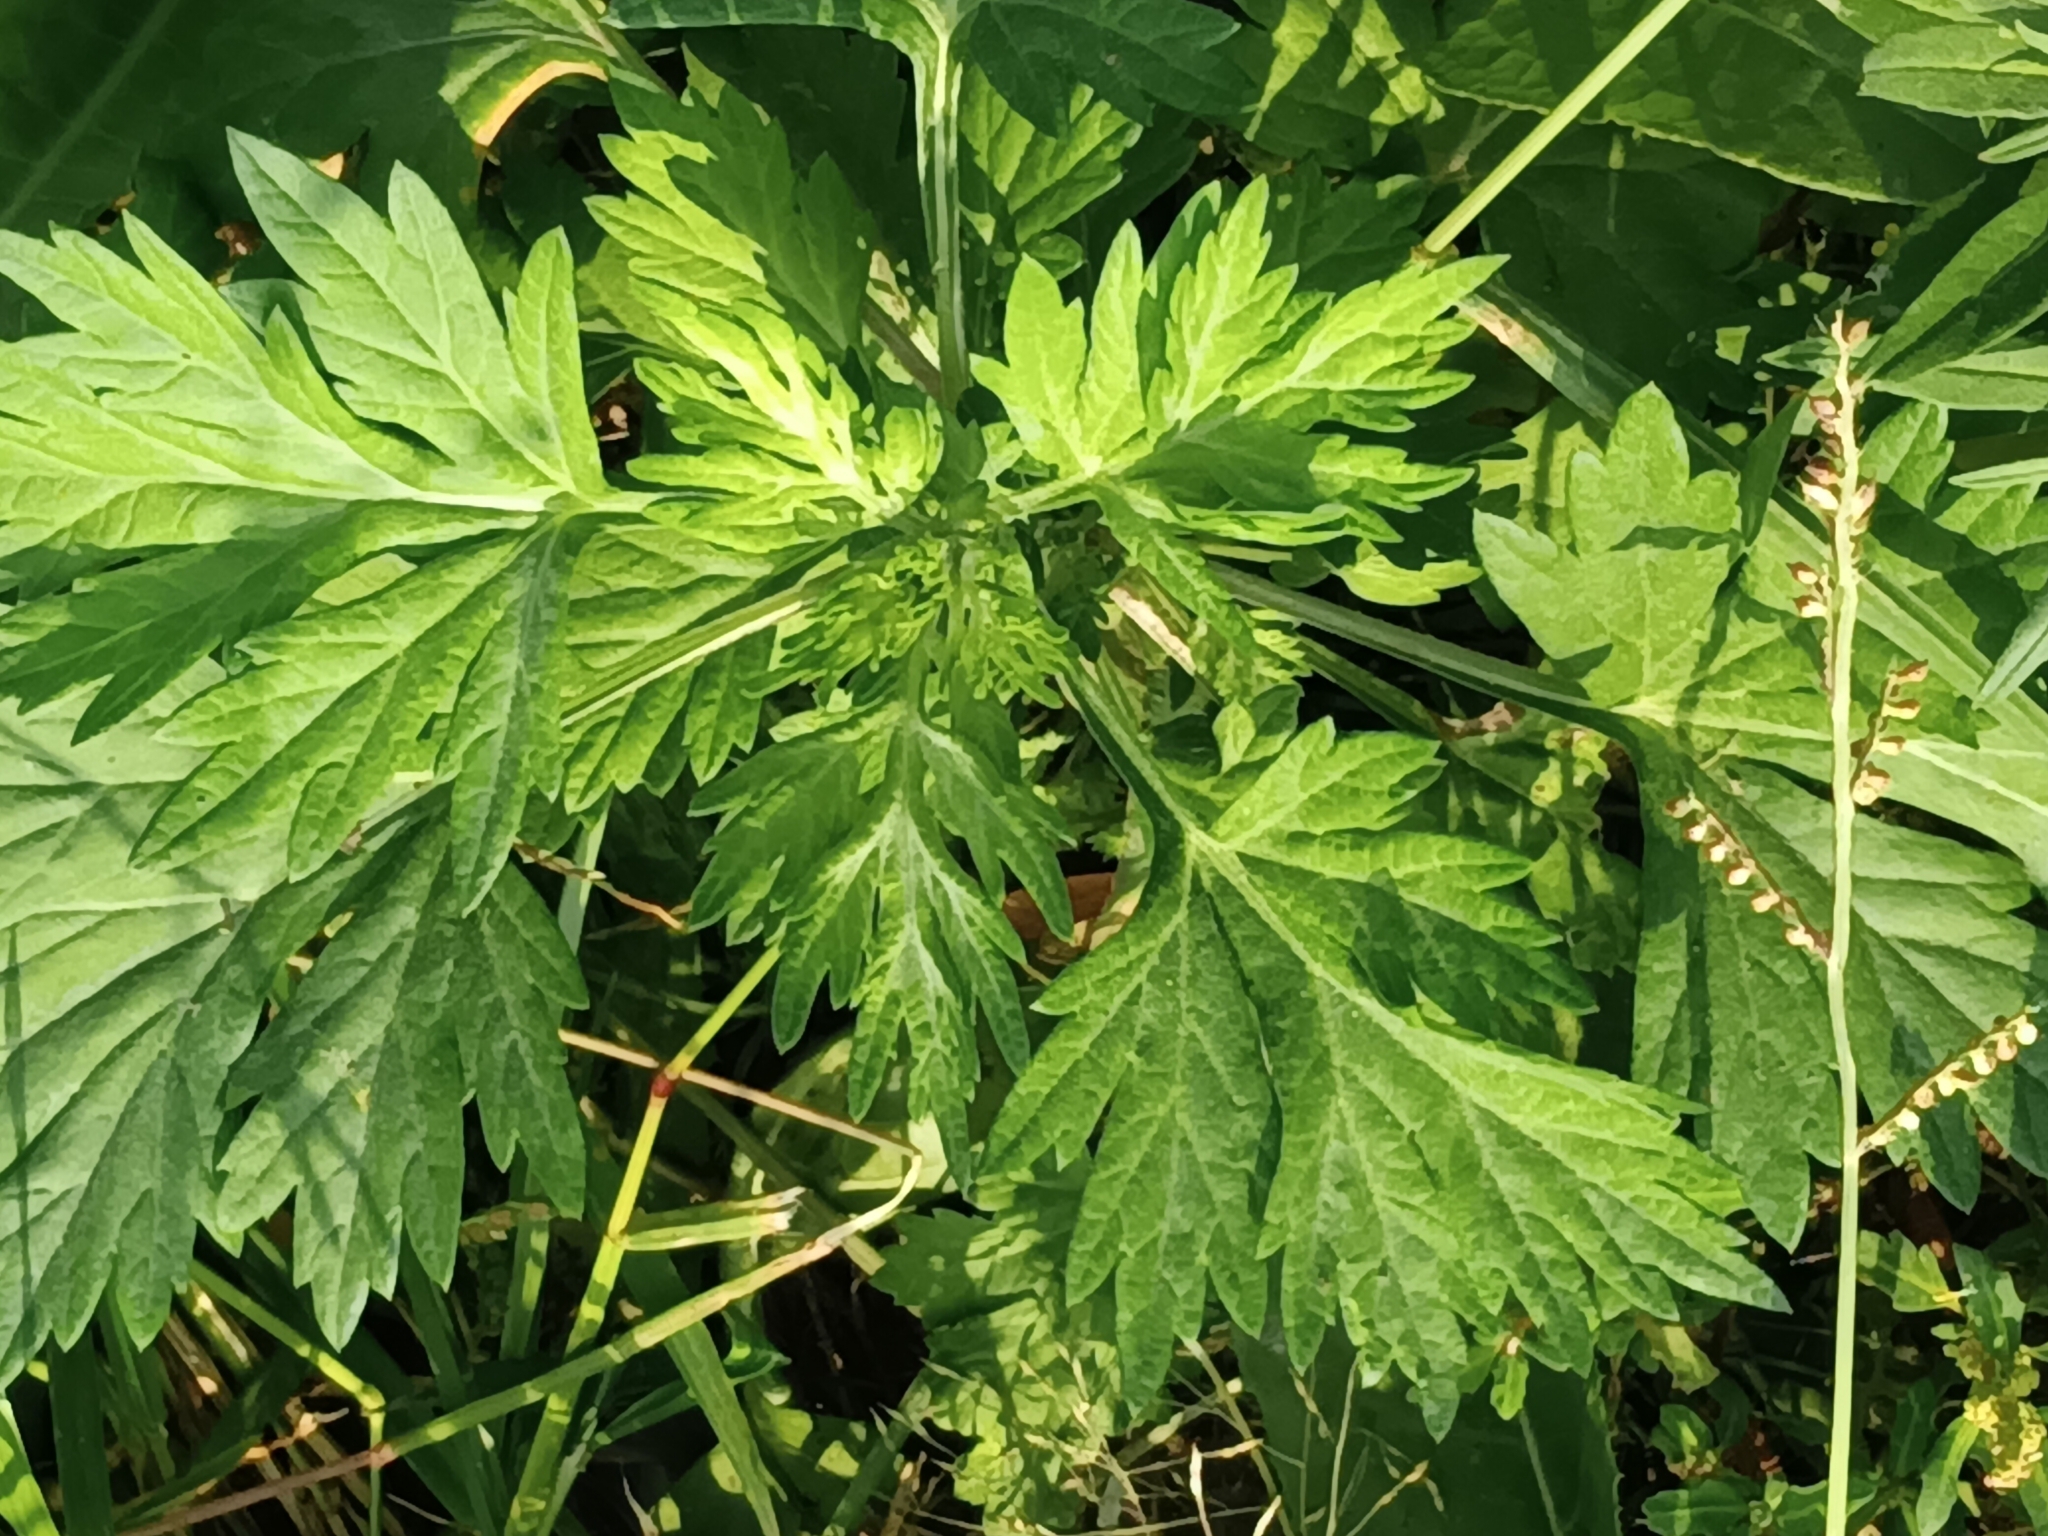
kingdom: Plantae
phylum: Tracheophyta
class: Magnoliopsida
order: Asterales
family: Asteraceae
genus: Artemisia
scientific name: Artemisia vulgaris
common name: Mugwort
